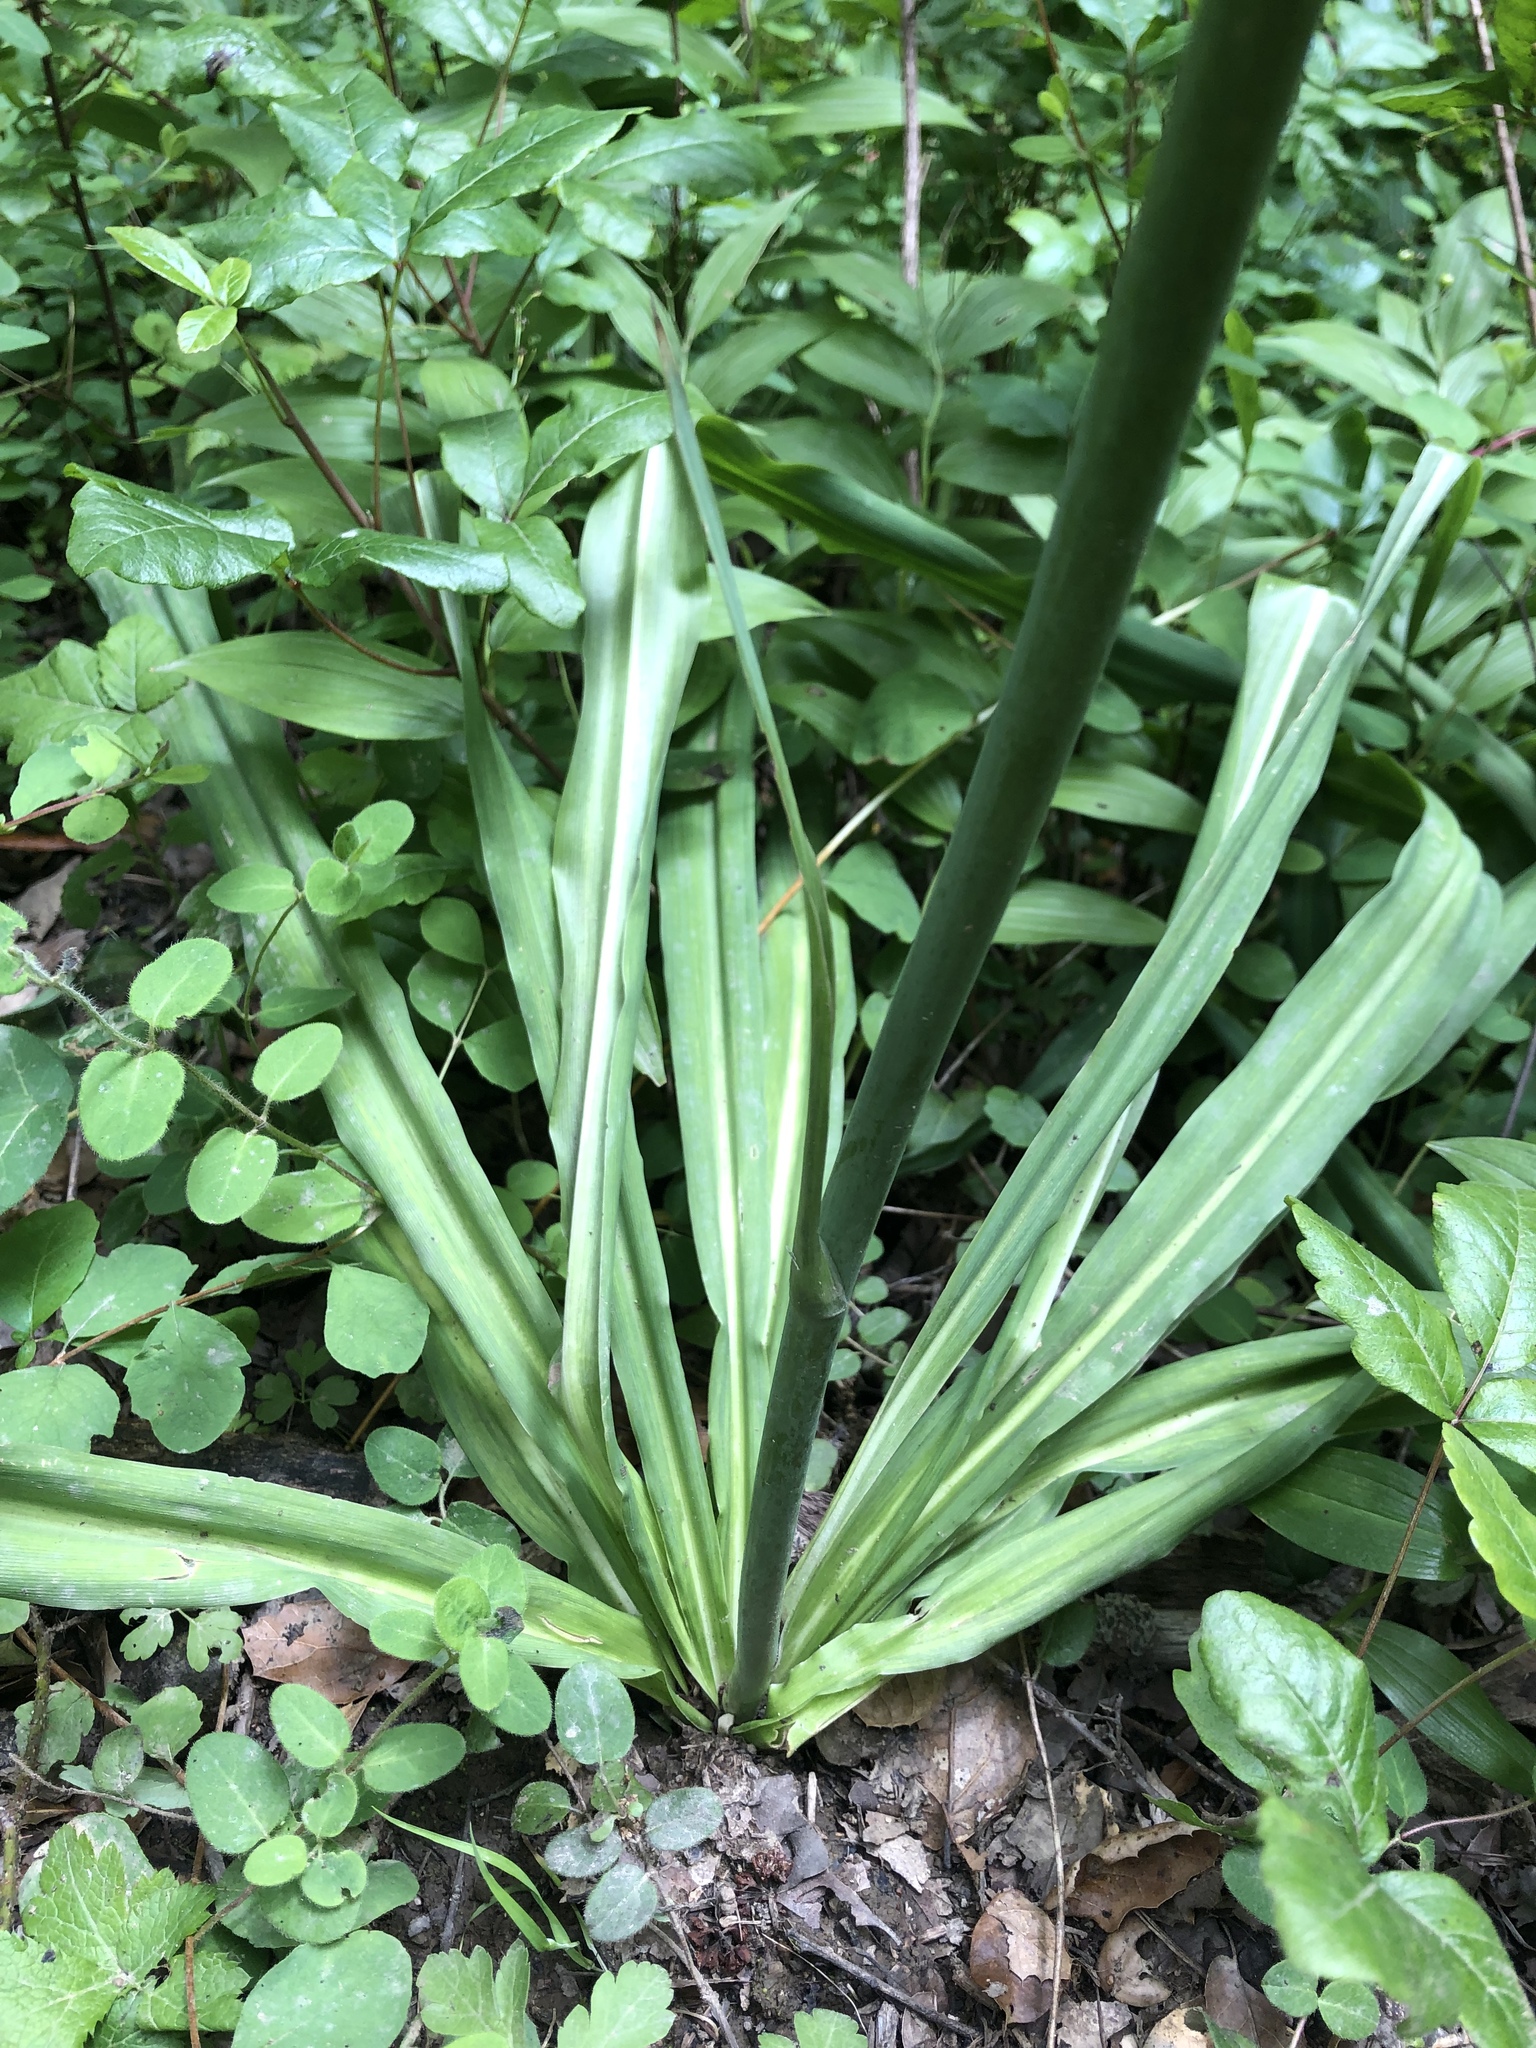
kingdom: Plantae
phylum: Tracheophyta
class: Liliopsida
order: Asparagales
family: Asparagaceae
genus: Chlorogalum
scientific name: Chlorogalum pomeridianum
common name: Amole
